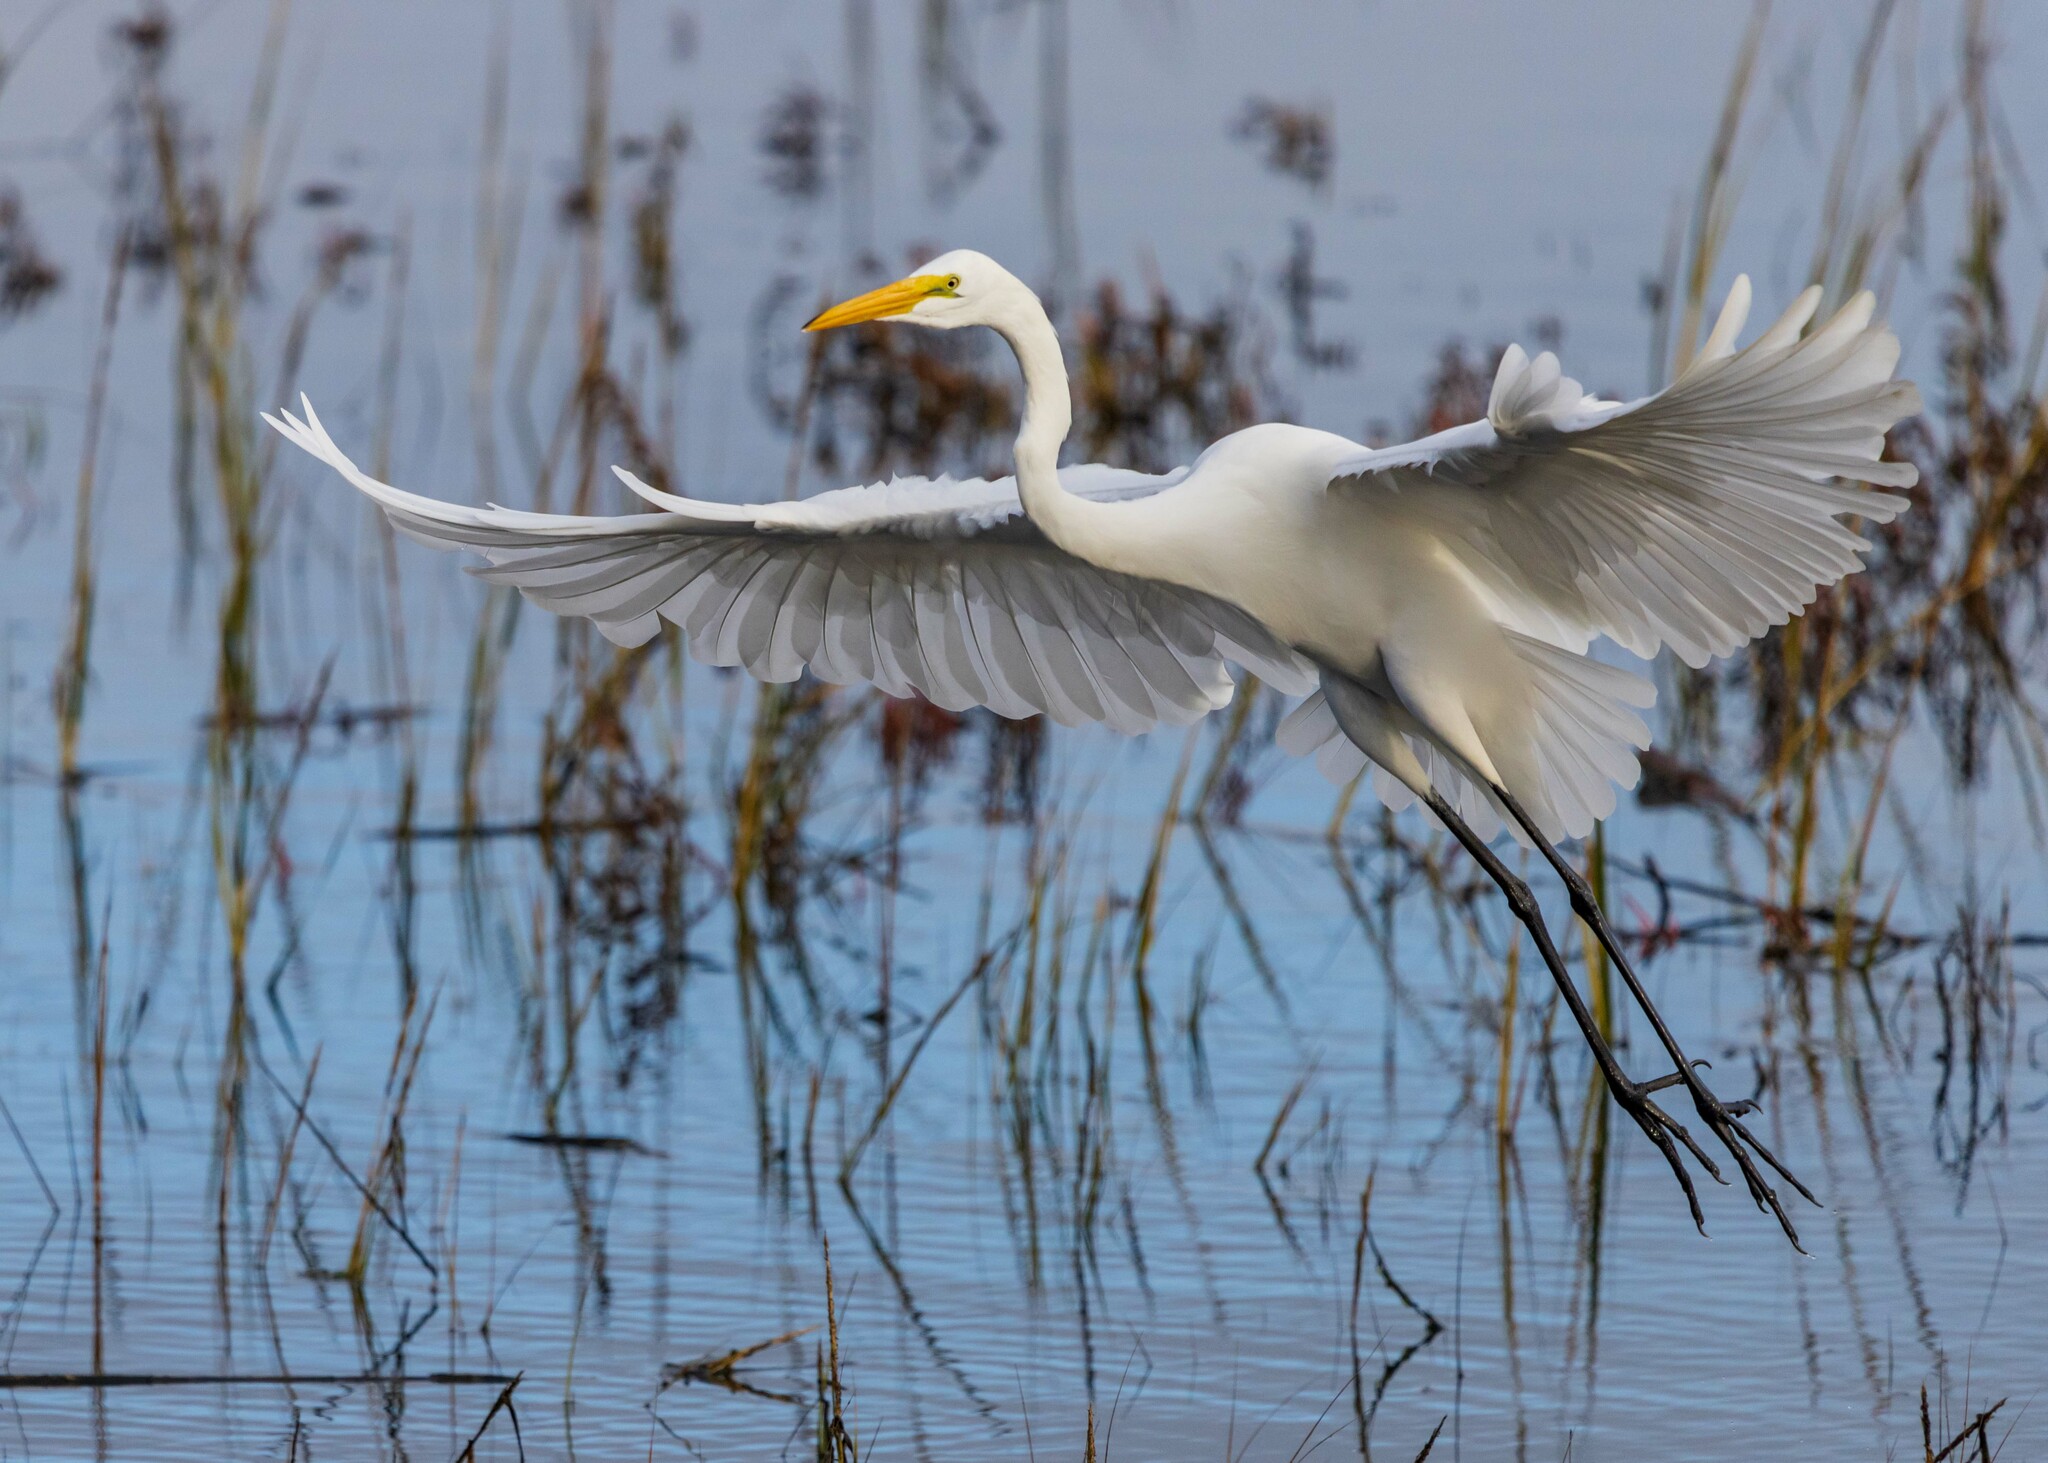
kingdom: Animalia
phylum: Chordata
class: Aves
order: Pelecaniformes
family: Ardeidae
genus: Ardea
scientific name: Ardea alba
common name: Great egret
